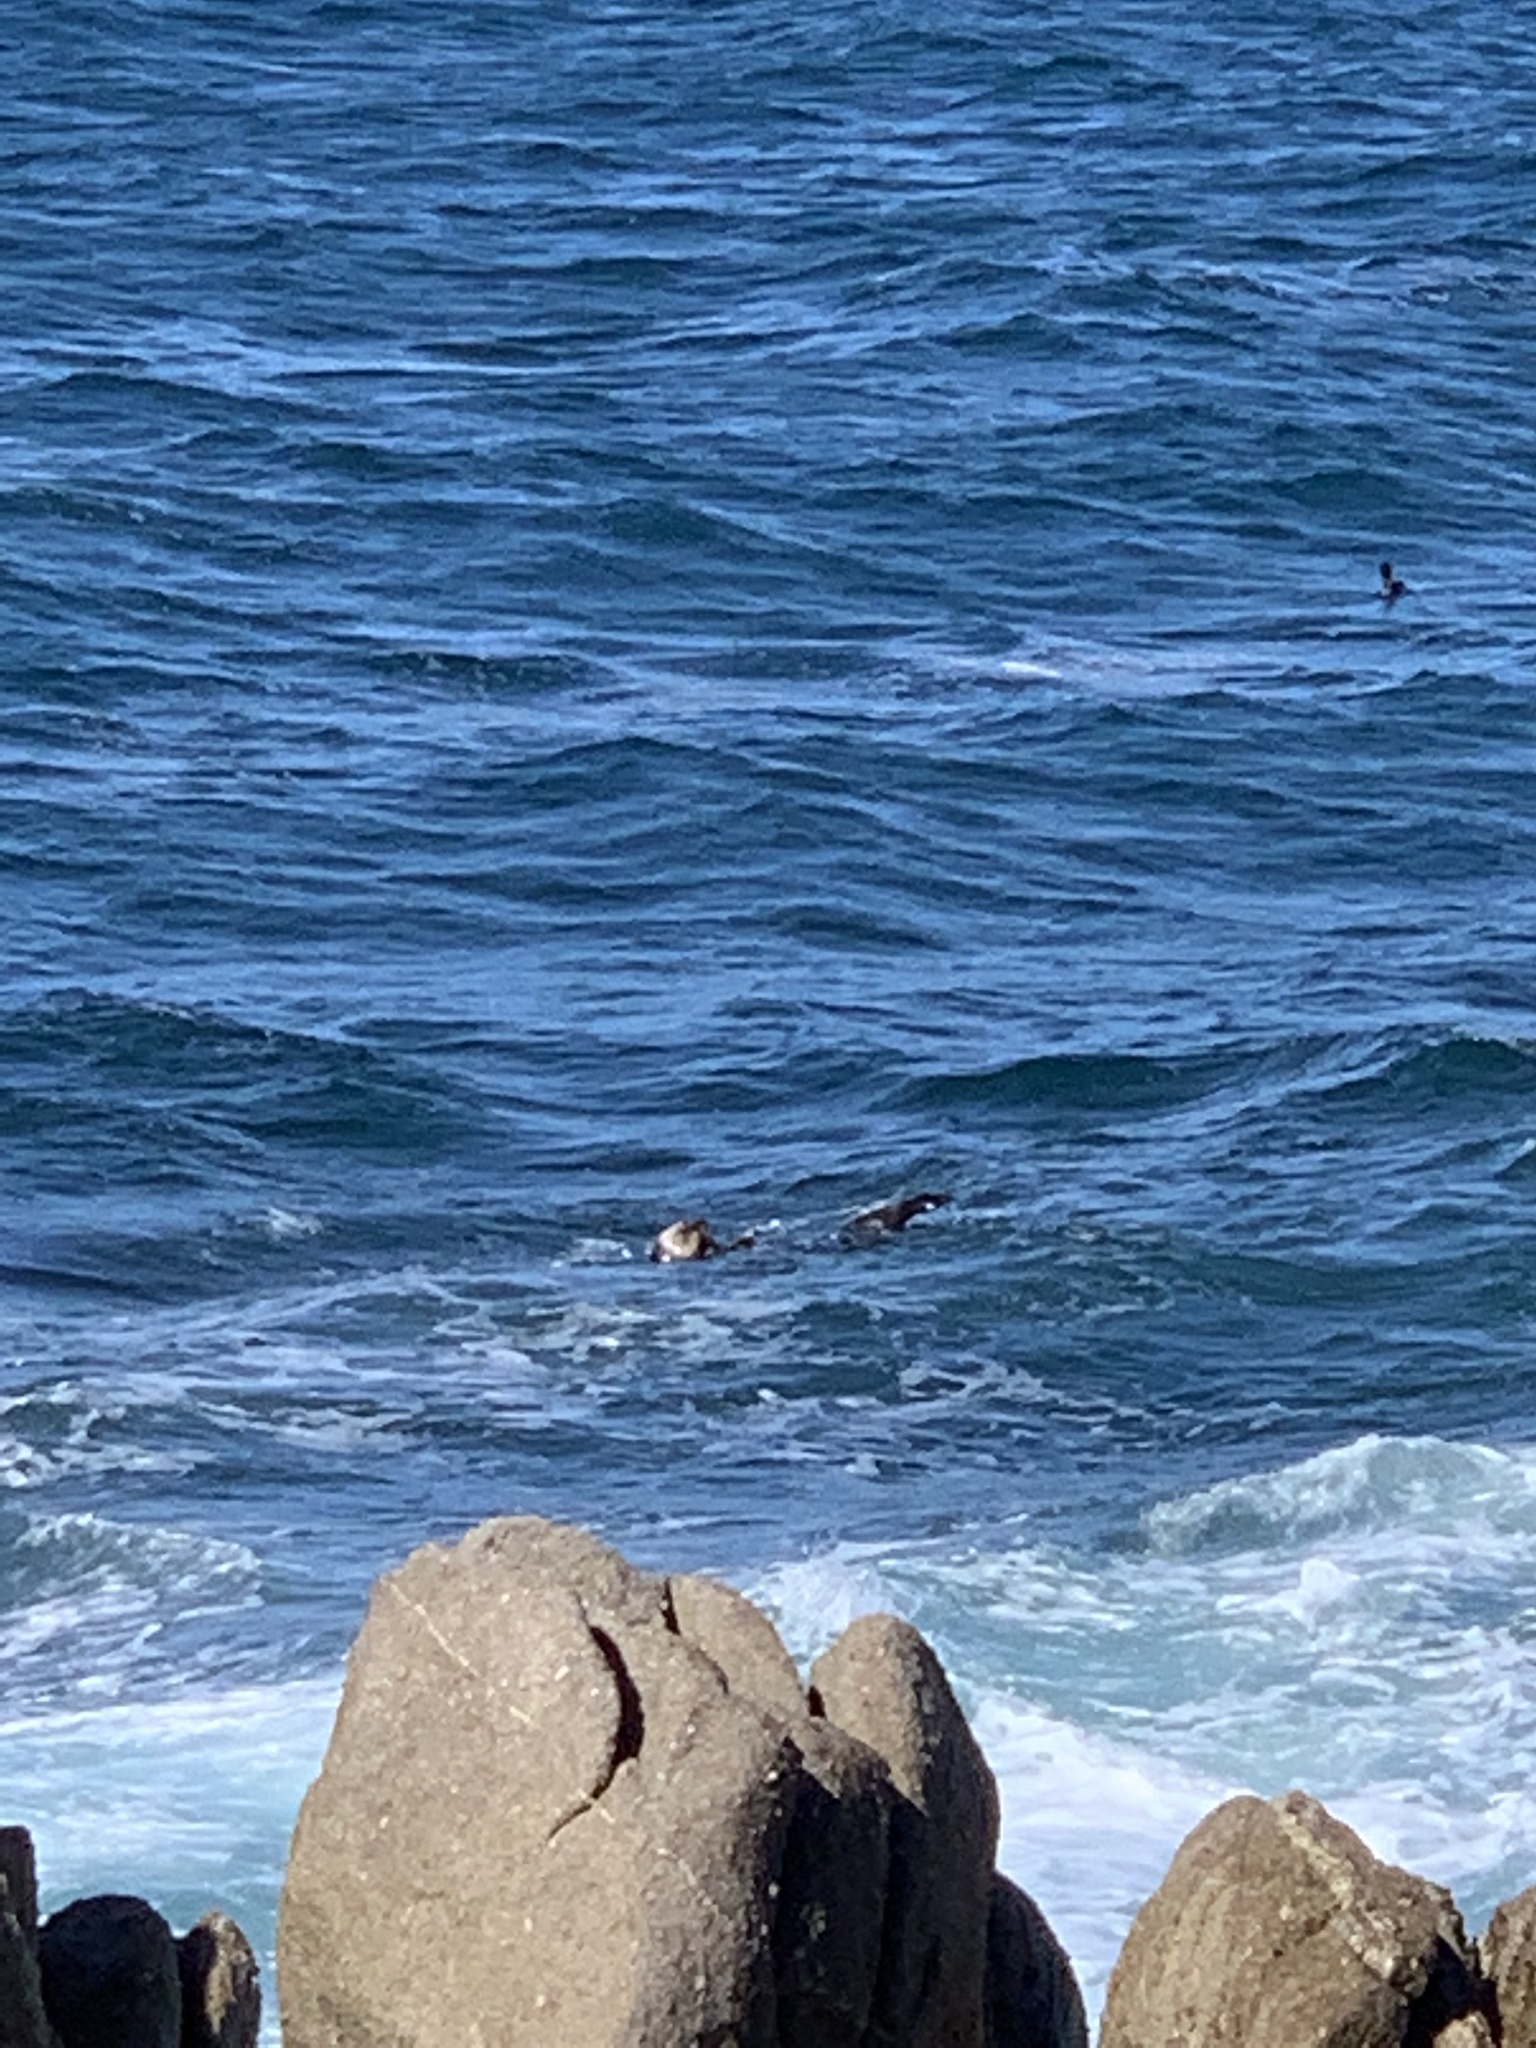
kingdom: Animalia
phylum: Chordata
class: Mammalia
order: Carnivora
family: Mustelidae
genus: Enhydra
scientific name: Enhydra lutris
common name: Sea otter
